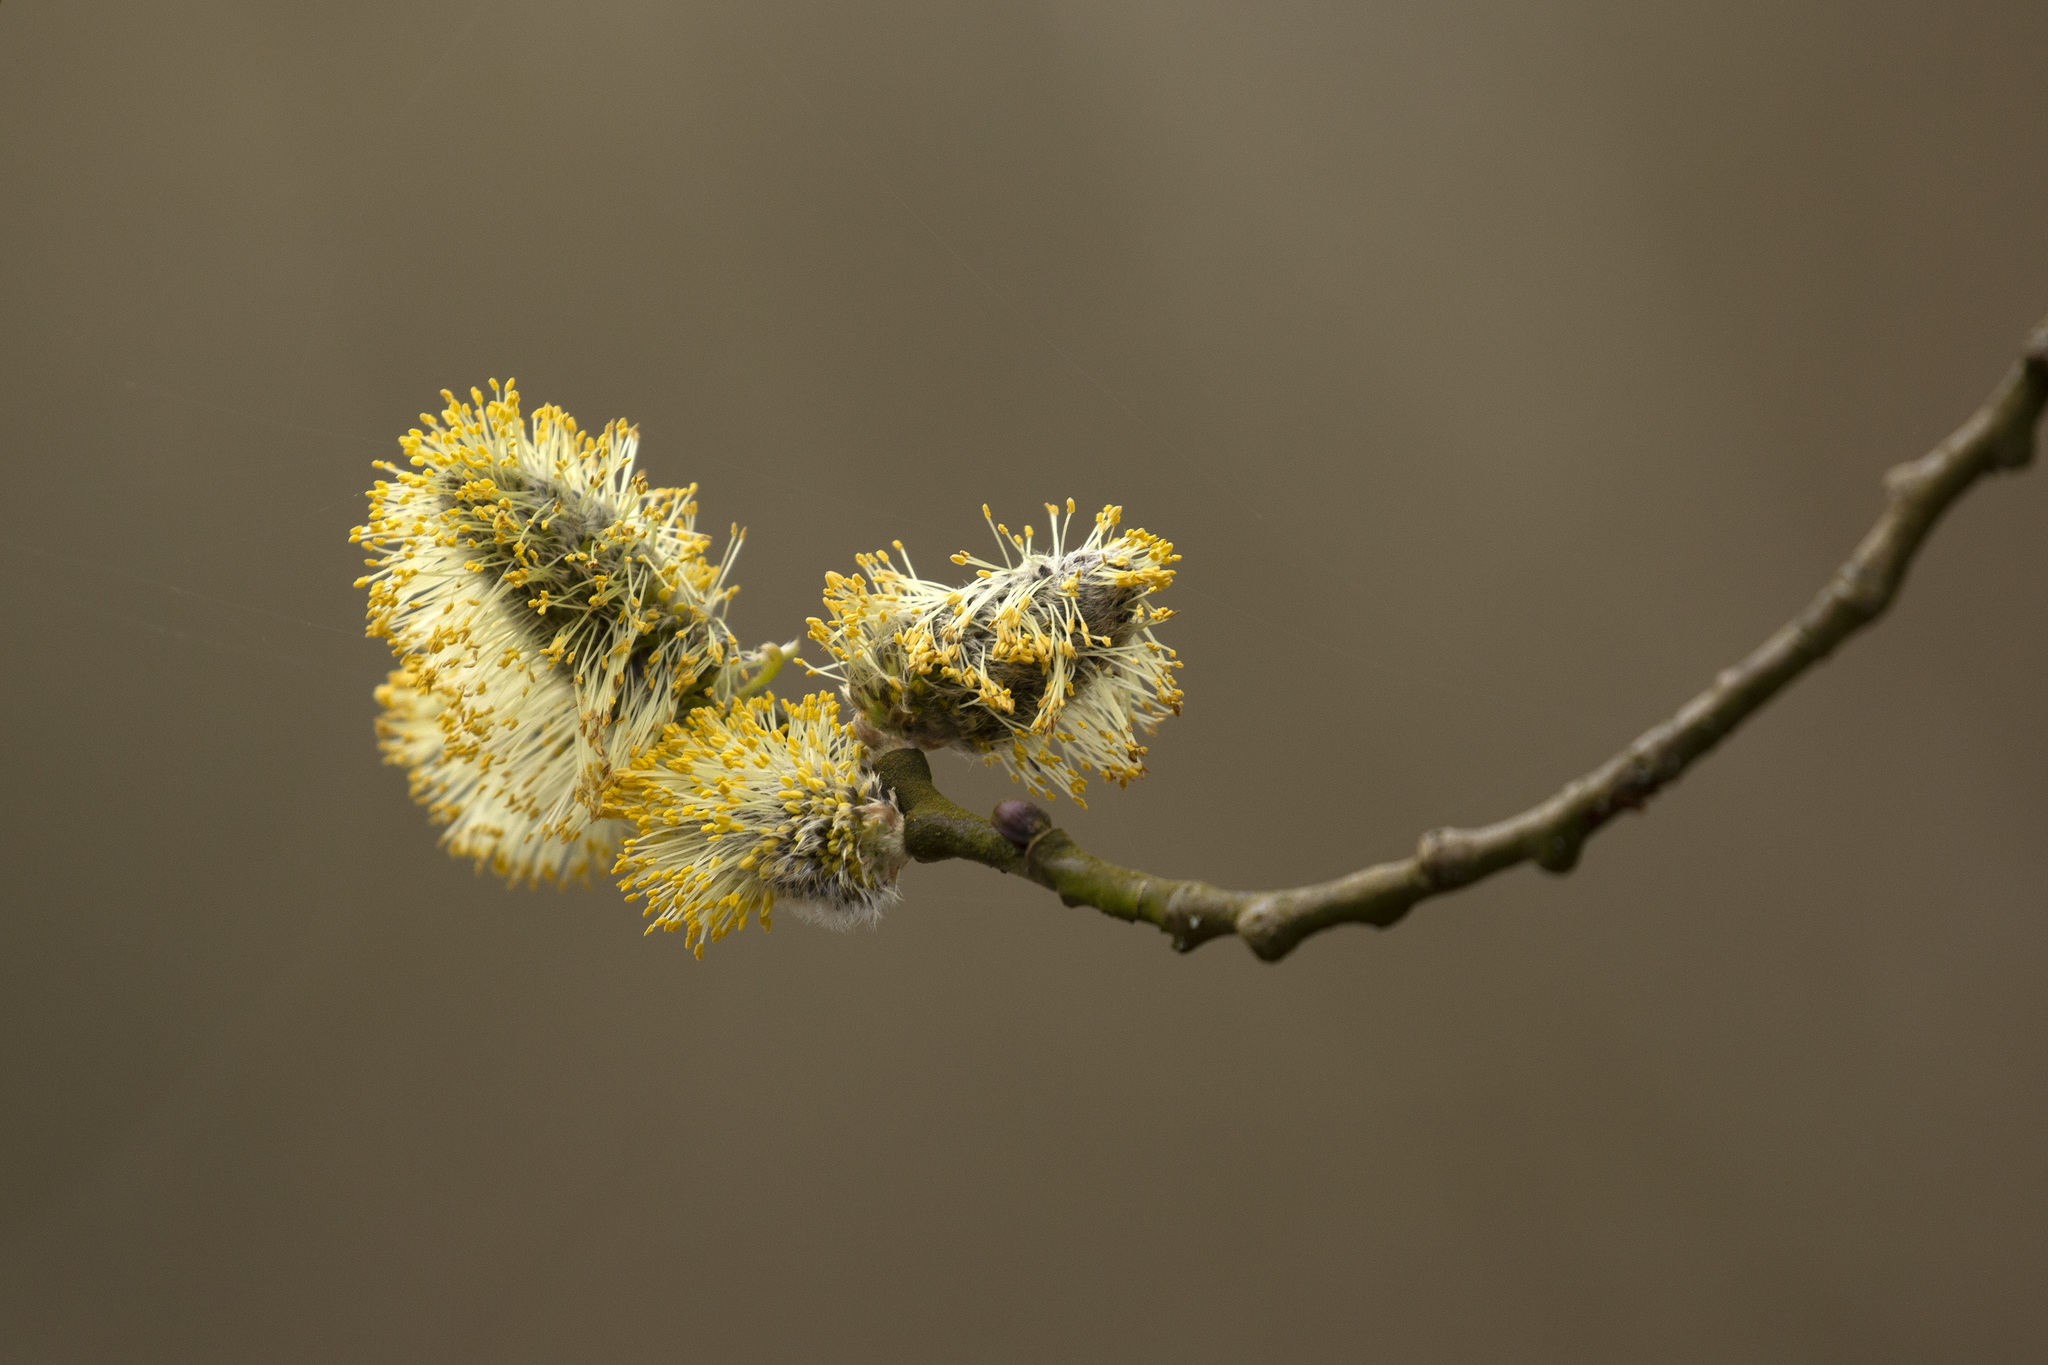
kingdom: Plantae
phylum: Tracheophyta
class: Magnoliopsida
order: Malpighiales
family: Salicaceae
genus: Salix
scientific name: Salix caprea
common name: Goat willow
